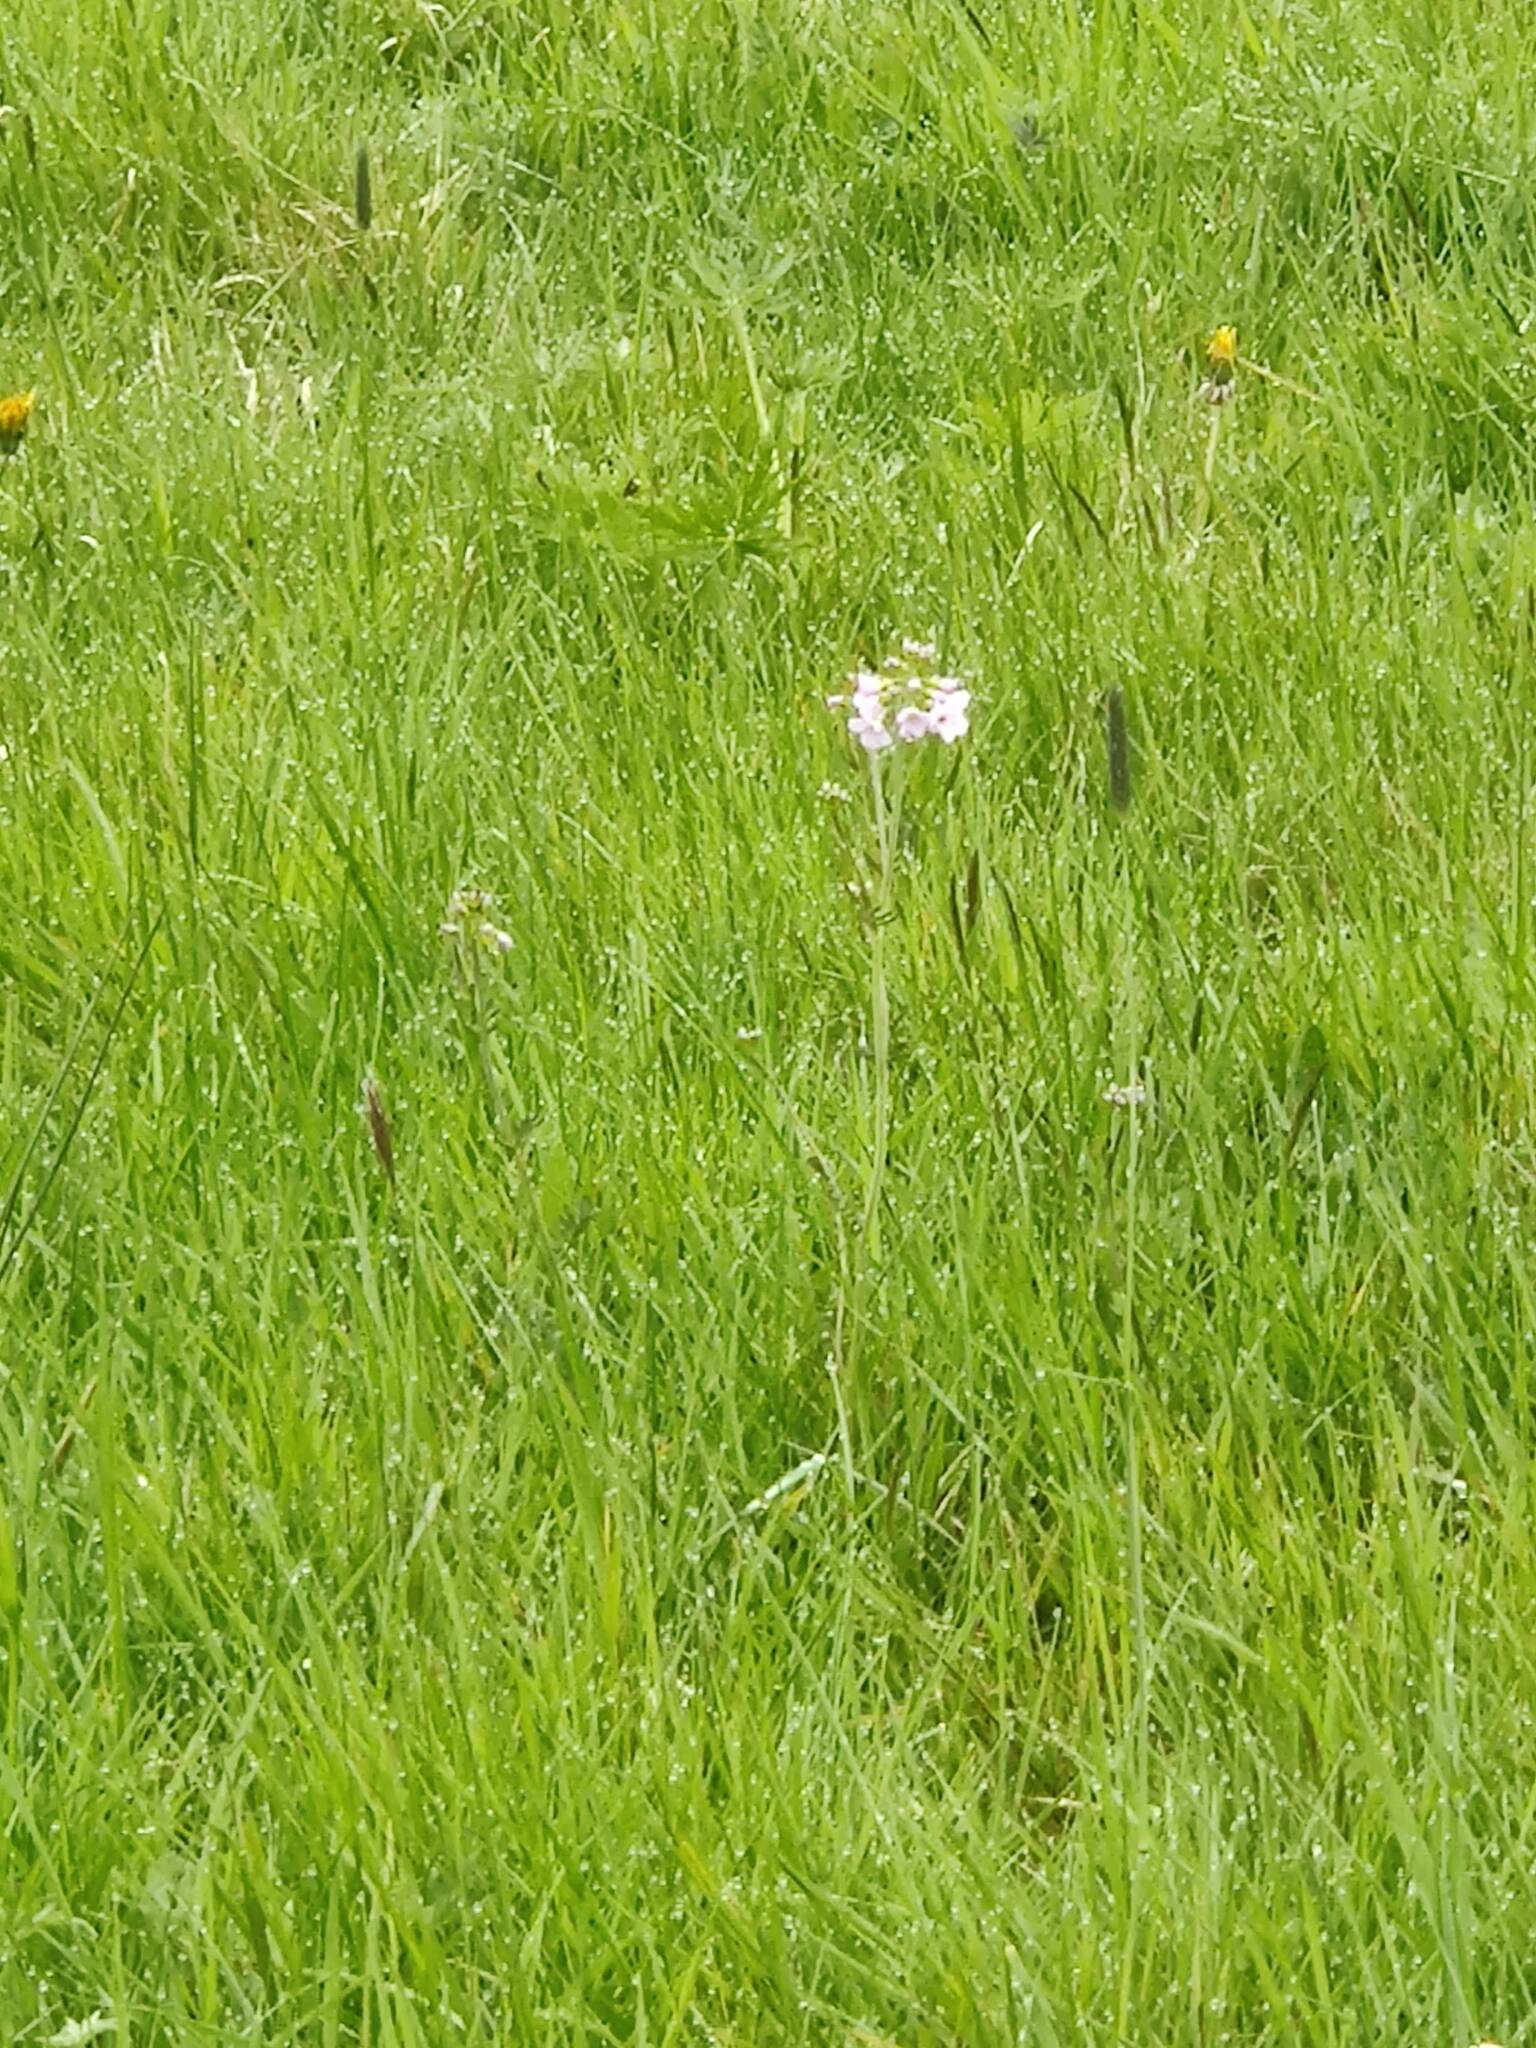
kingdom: Plantae
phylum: Tracheophyta
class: Magnoliopsida
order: Brassicales
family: Brassicaceae
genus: Cardamine
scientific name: Cardamine pratensis
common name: Cuckoo flower
